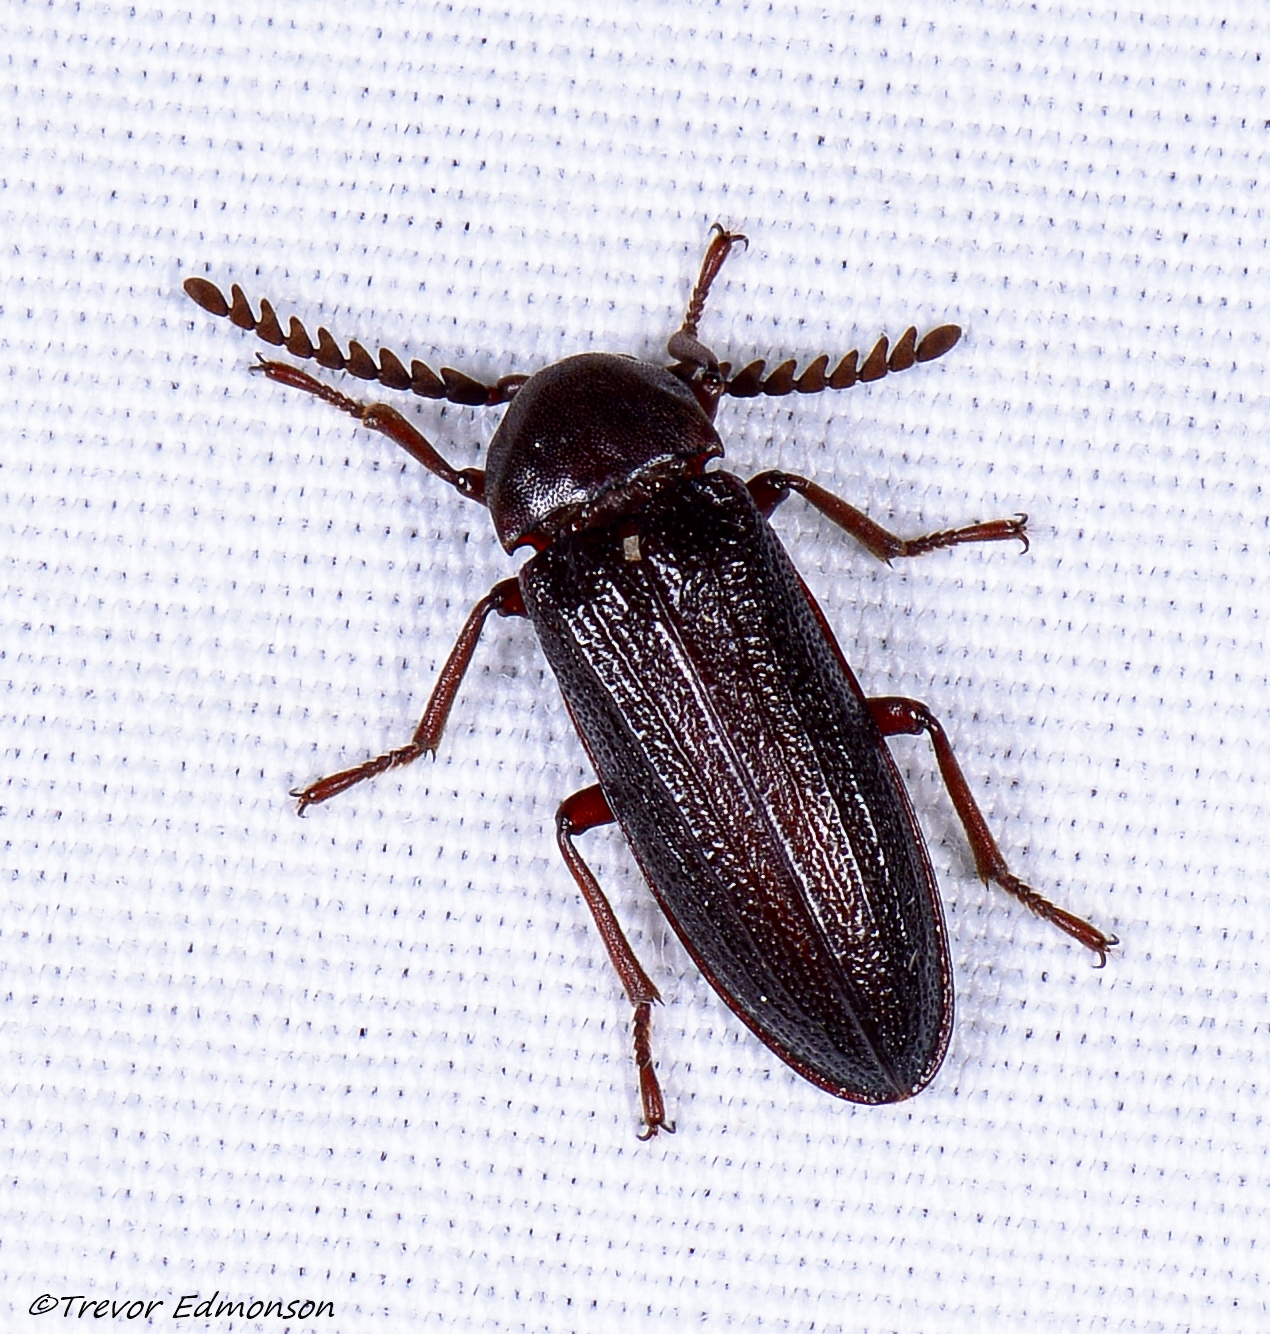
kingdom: Animalia
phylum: Arthropoda
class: Insecta
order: Coleoptera
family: Callirhipidae
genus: Zenoa
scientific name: Zenoa picea
